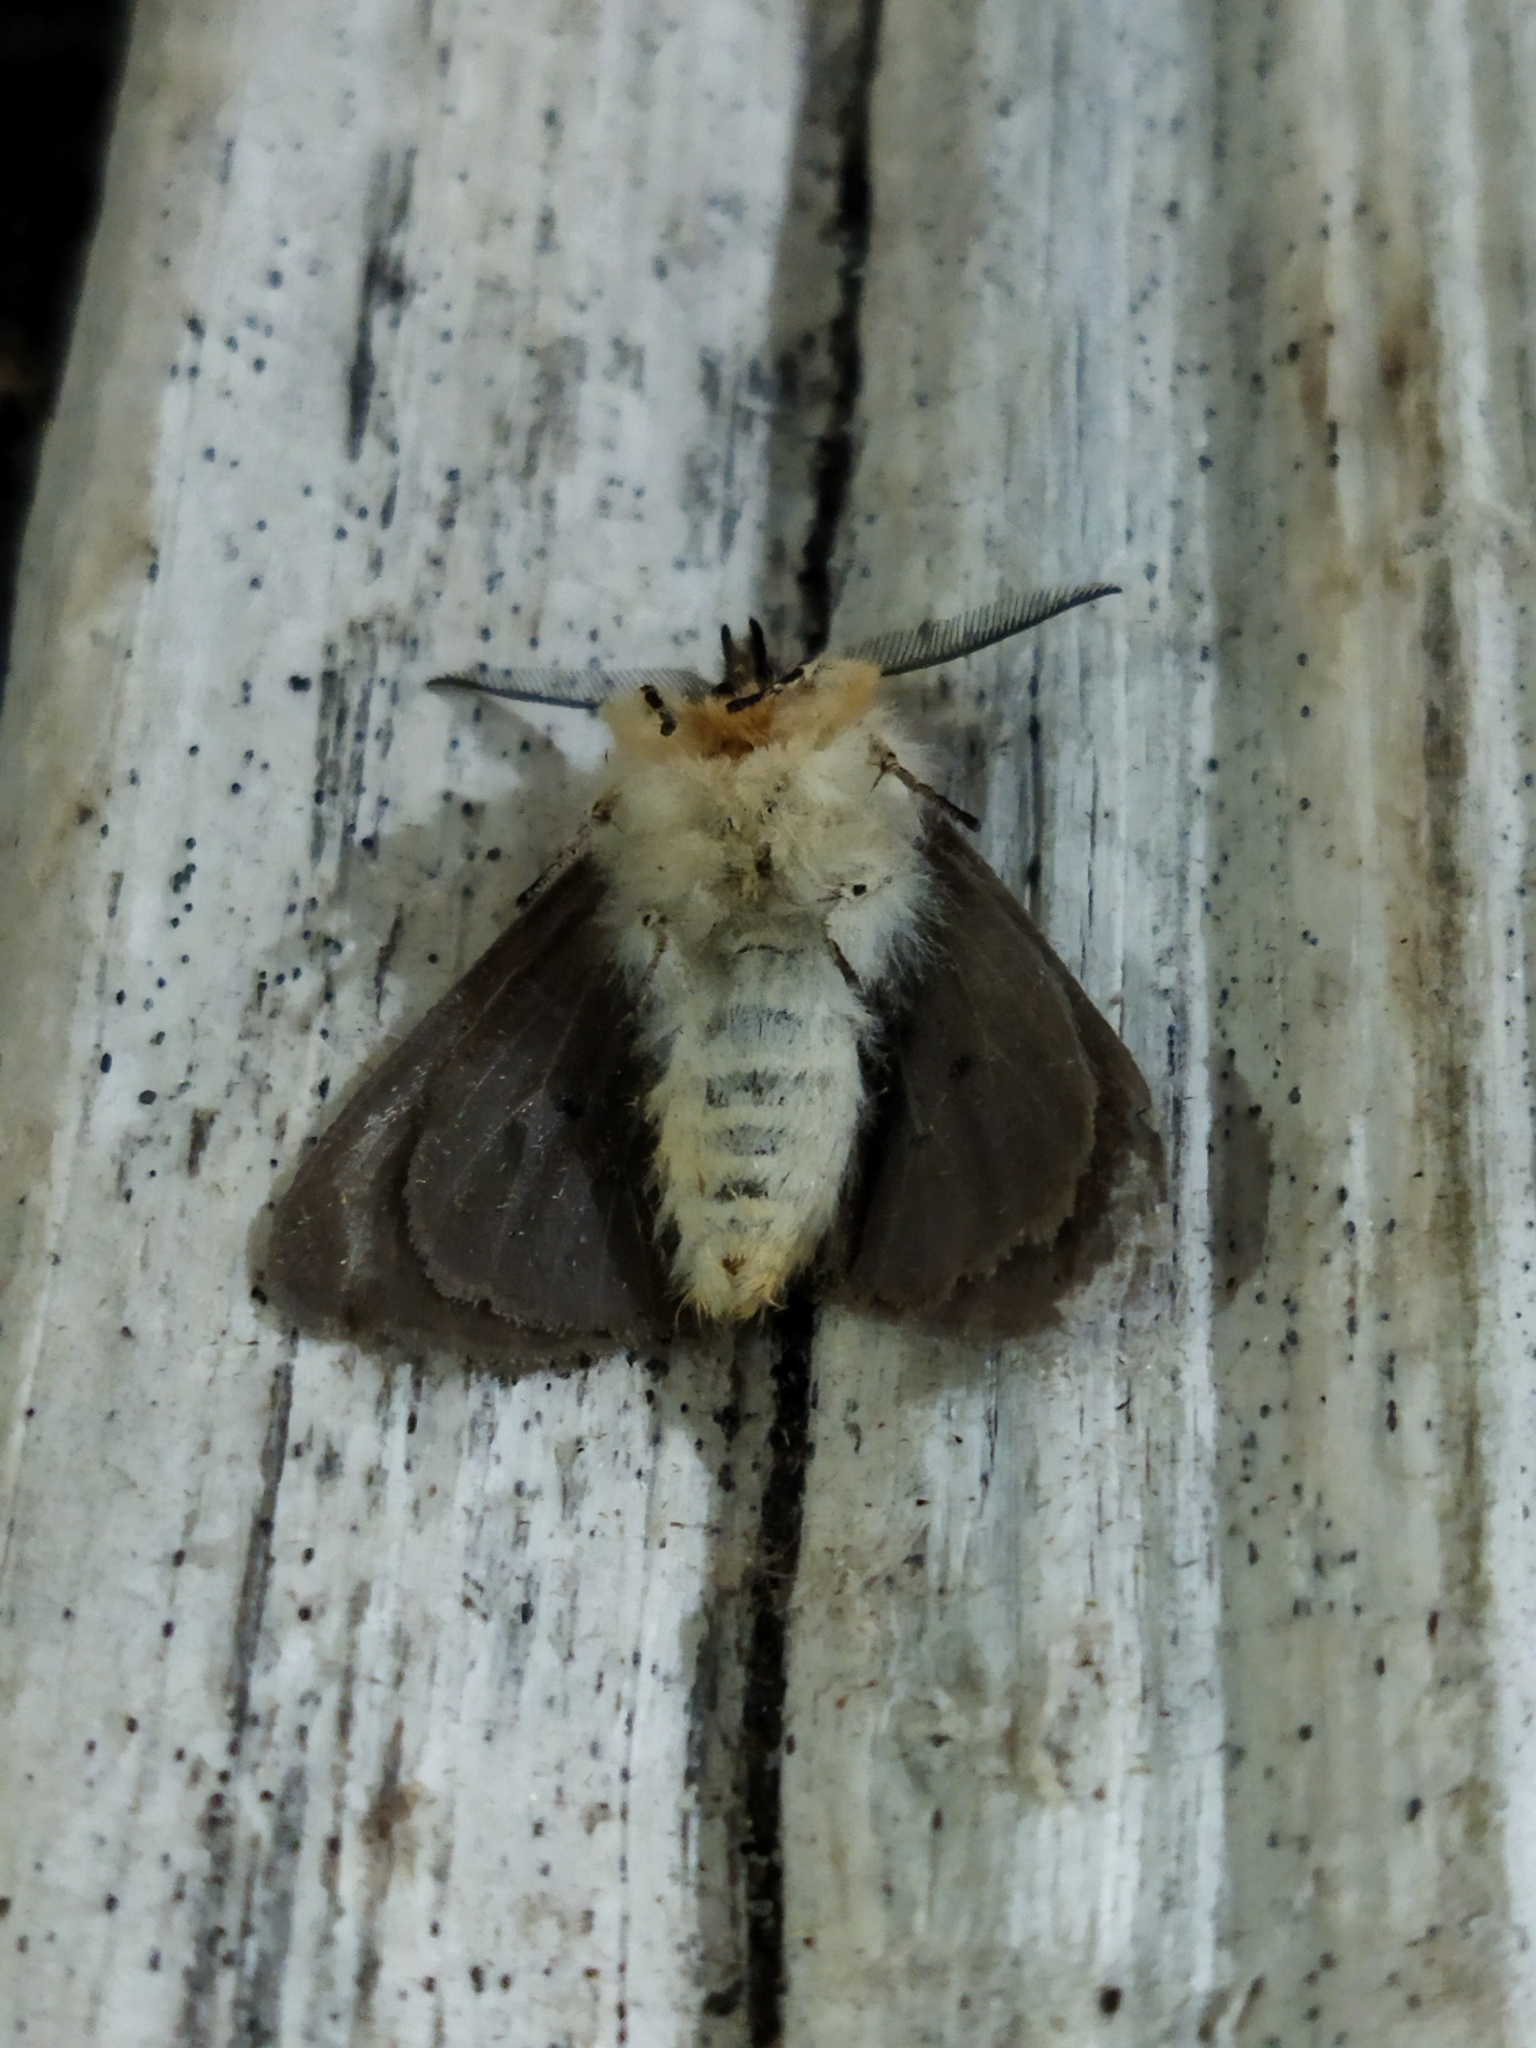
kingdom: Animalia
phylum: Arthropoda
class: Insecta
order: Lepidoptera
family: Erebidae
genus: Diaphora
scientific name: Diaphora mendica
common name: Muslin moth
